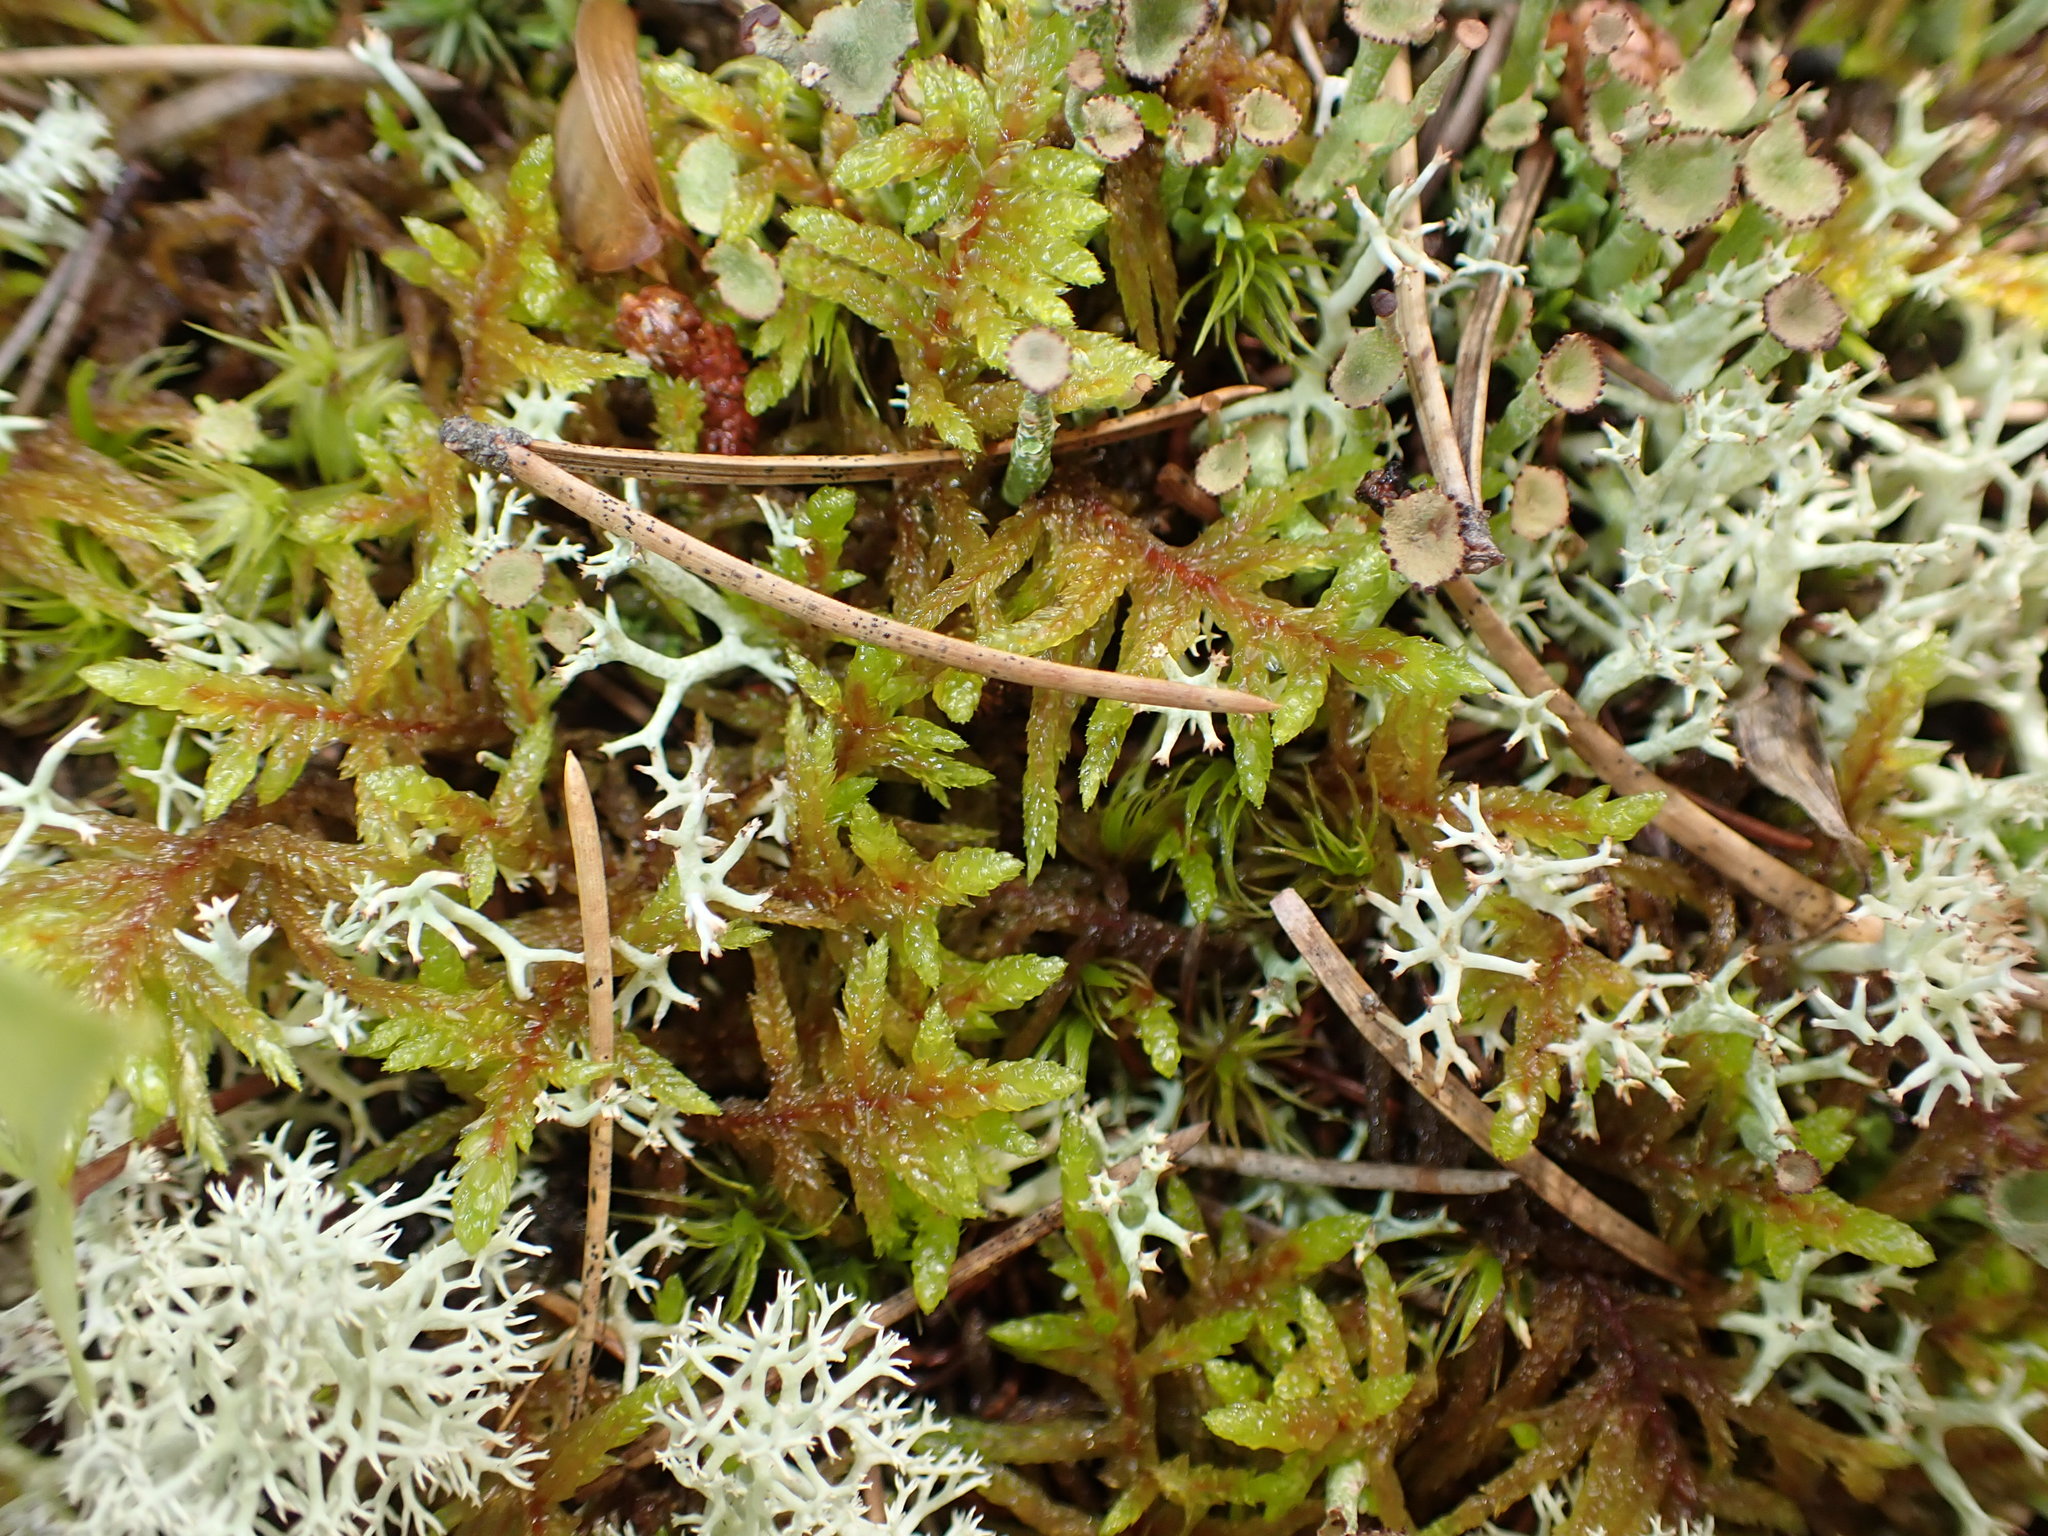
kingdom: Plantae
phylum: Bryophyta
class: Bryopsida
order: Hypnales
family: Hylocomiaceae
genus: Pleurozium
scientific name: Pleurozium schreberi
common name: Red-stemmed feather moss
